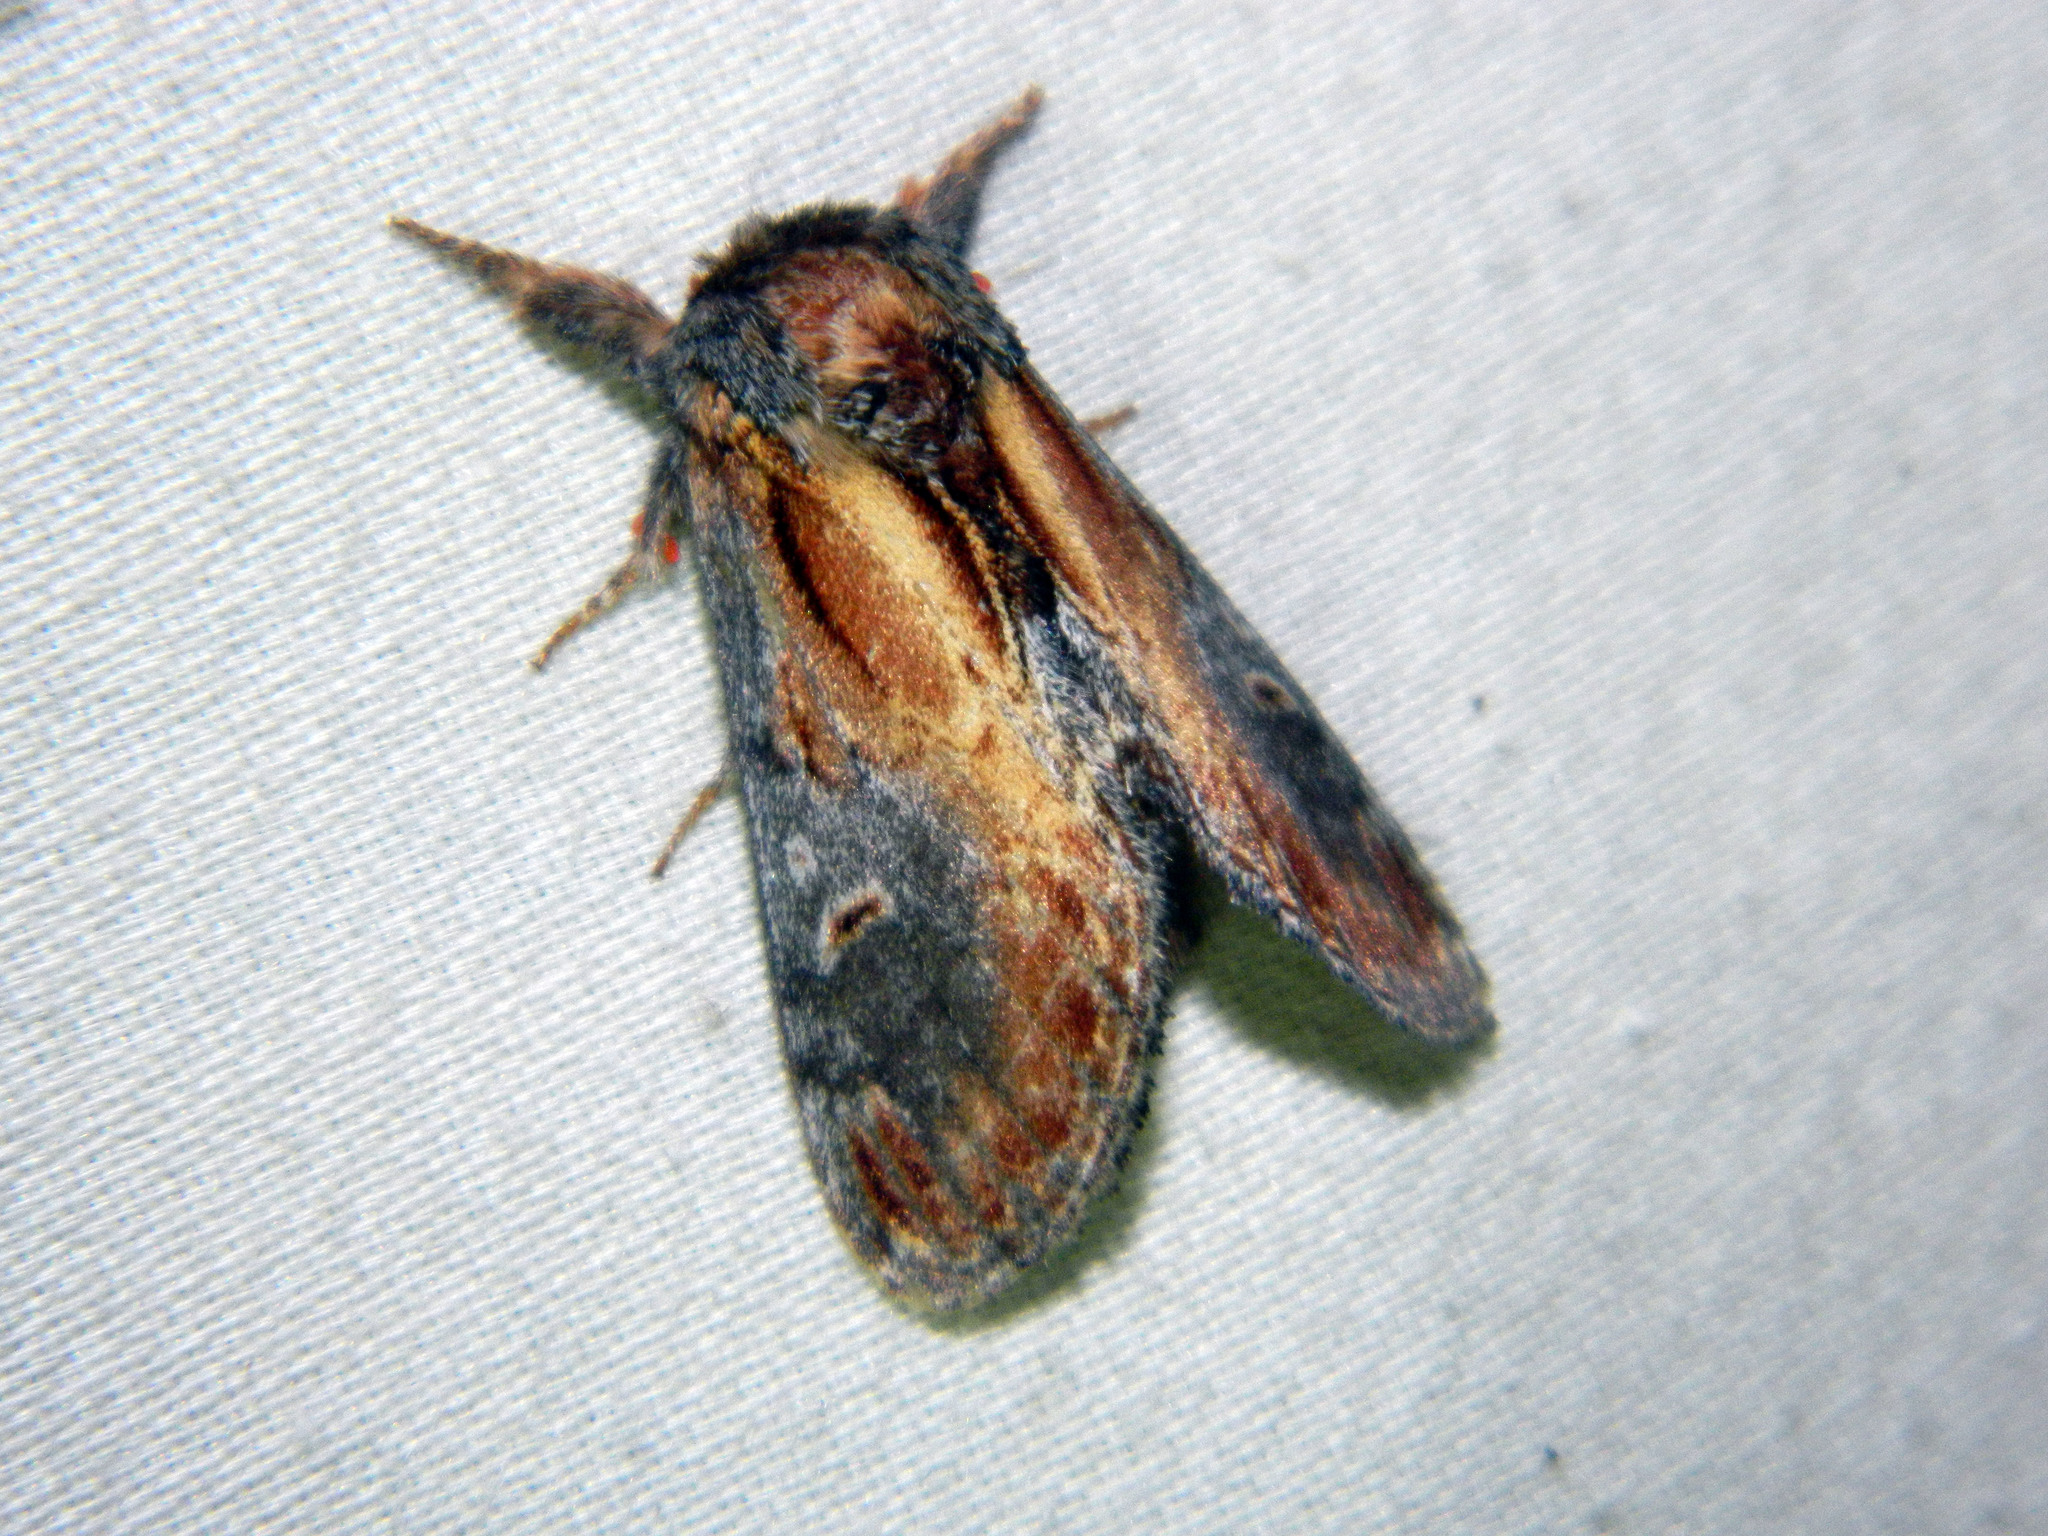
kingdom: Animalia
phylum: Arthropoda
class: Insecta
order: Lepidoptera
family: Notodontidae
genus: Notodonta
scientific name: Notodonta scitipennis
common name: Finned-willow prominent moth
